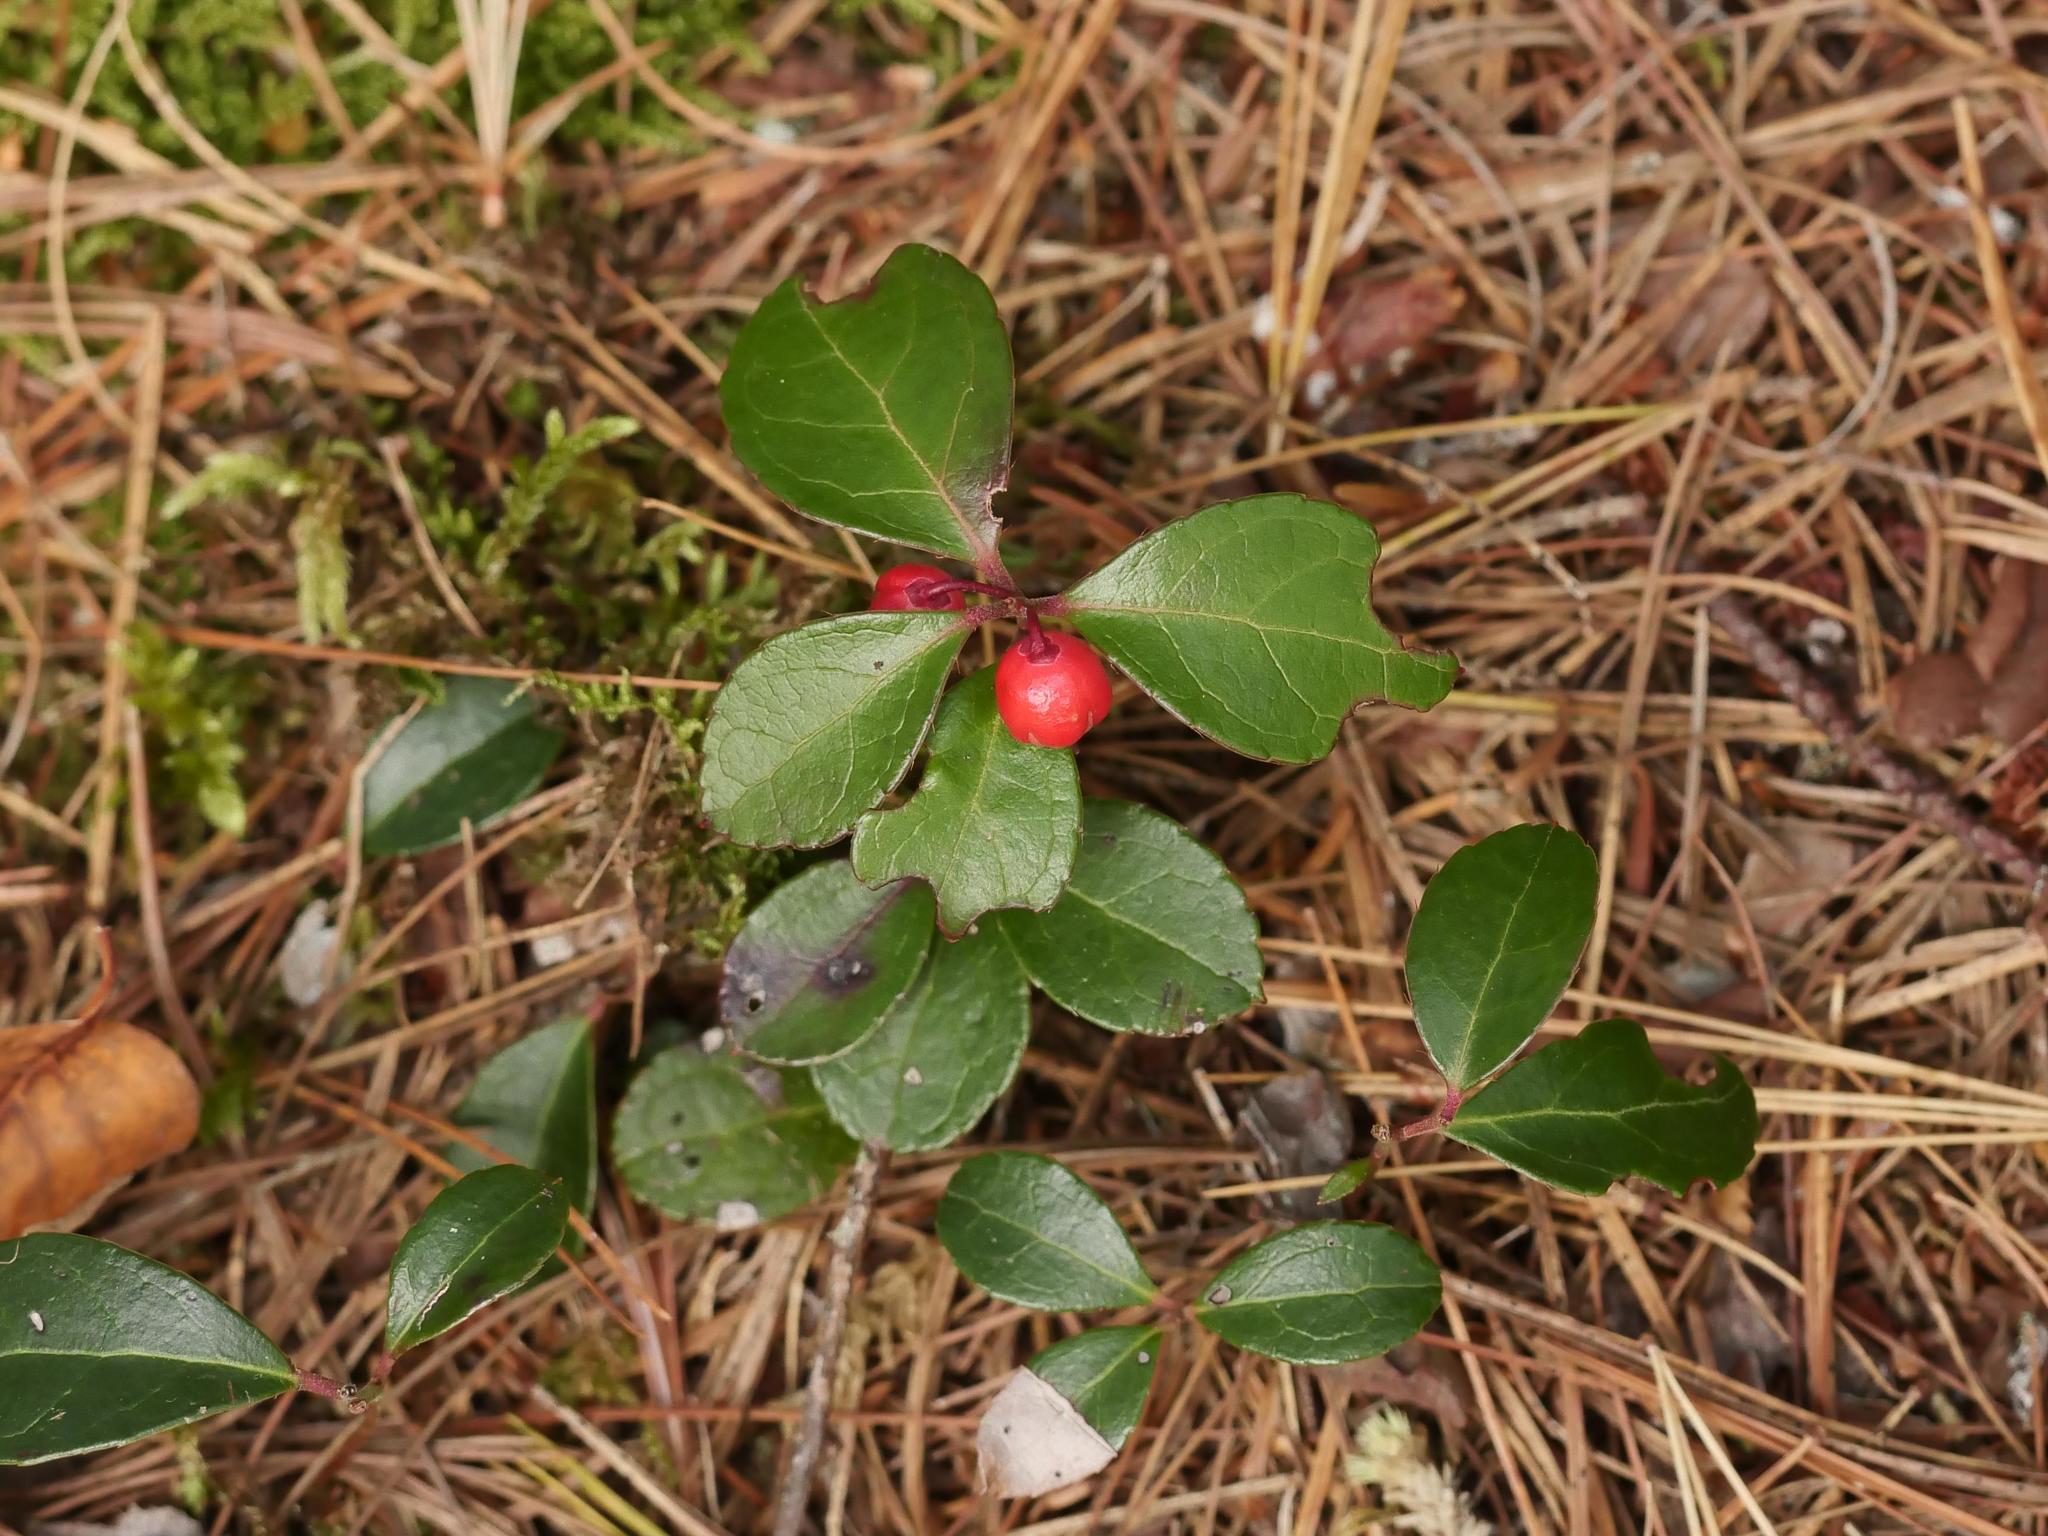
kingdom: Plantae
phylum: Tracheophyta
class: Magnoliopsida
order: Ericales
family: Ericaceae
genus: Gaultheria
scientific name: Gaultheria procumbens
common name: Checkerberry
